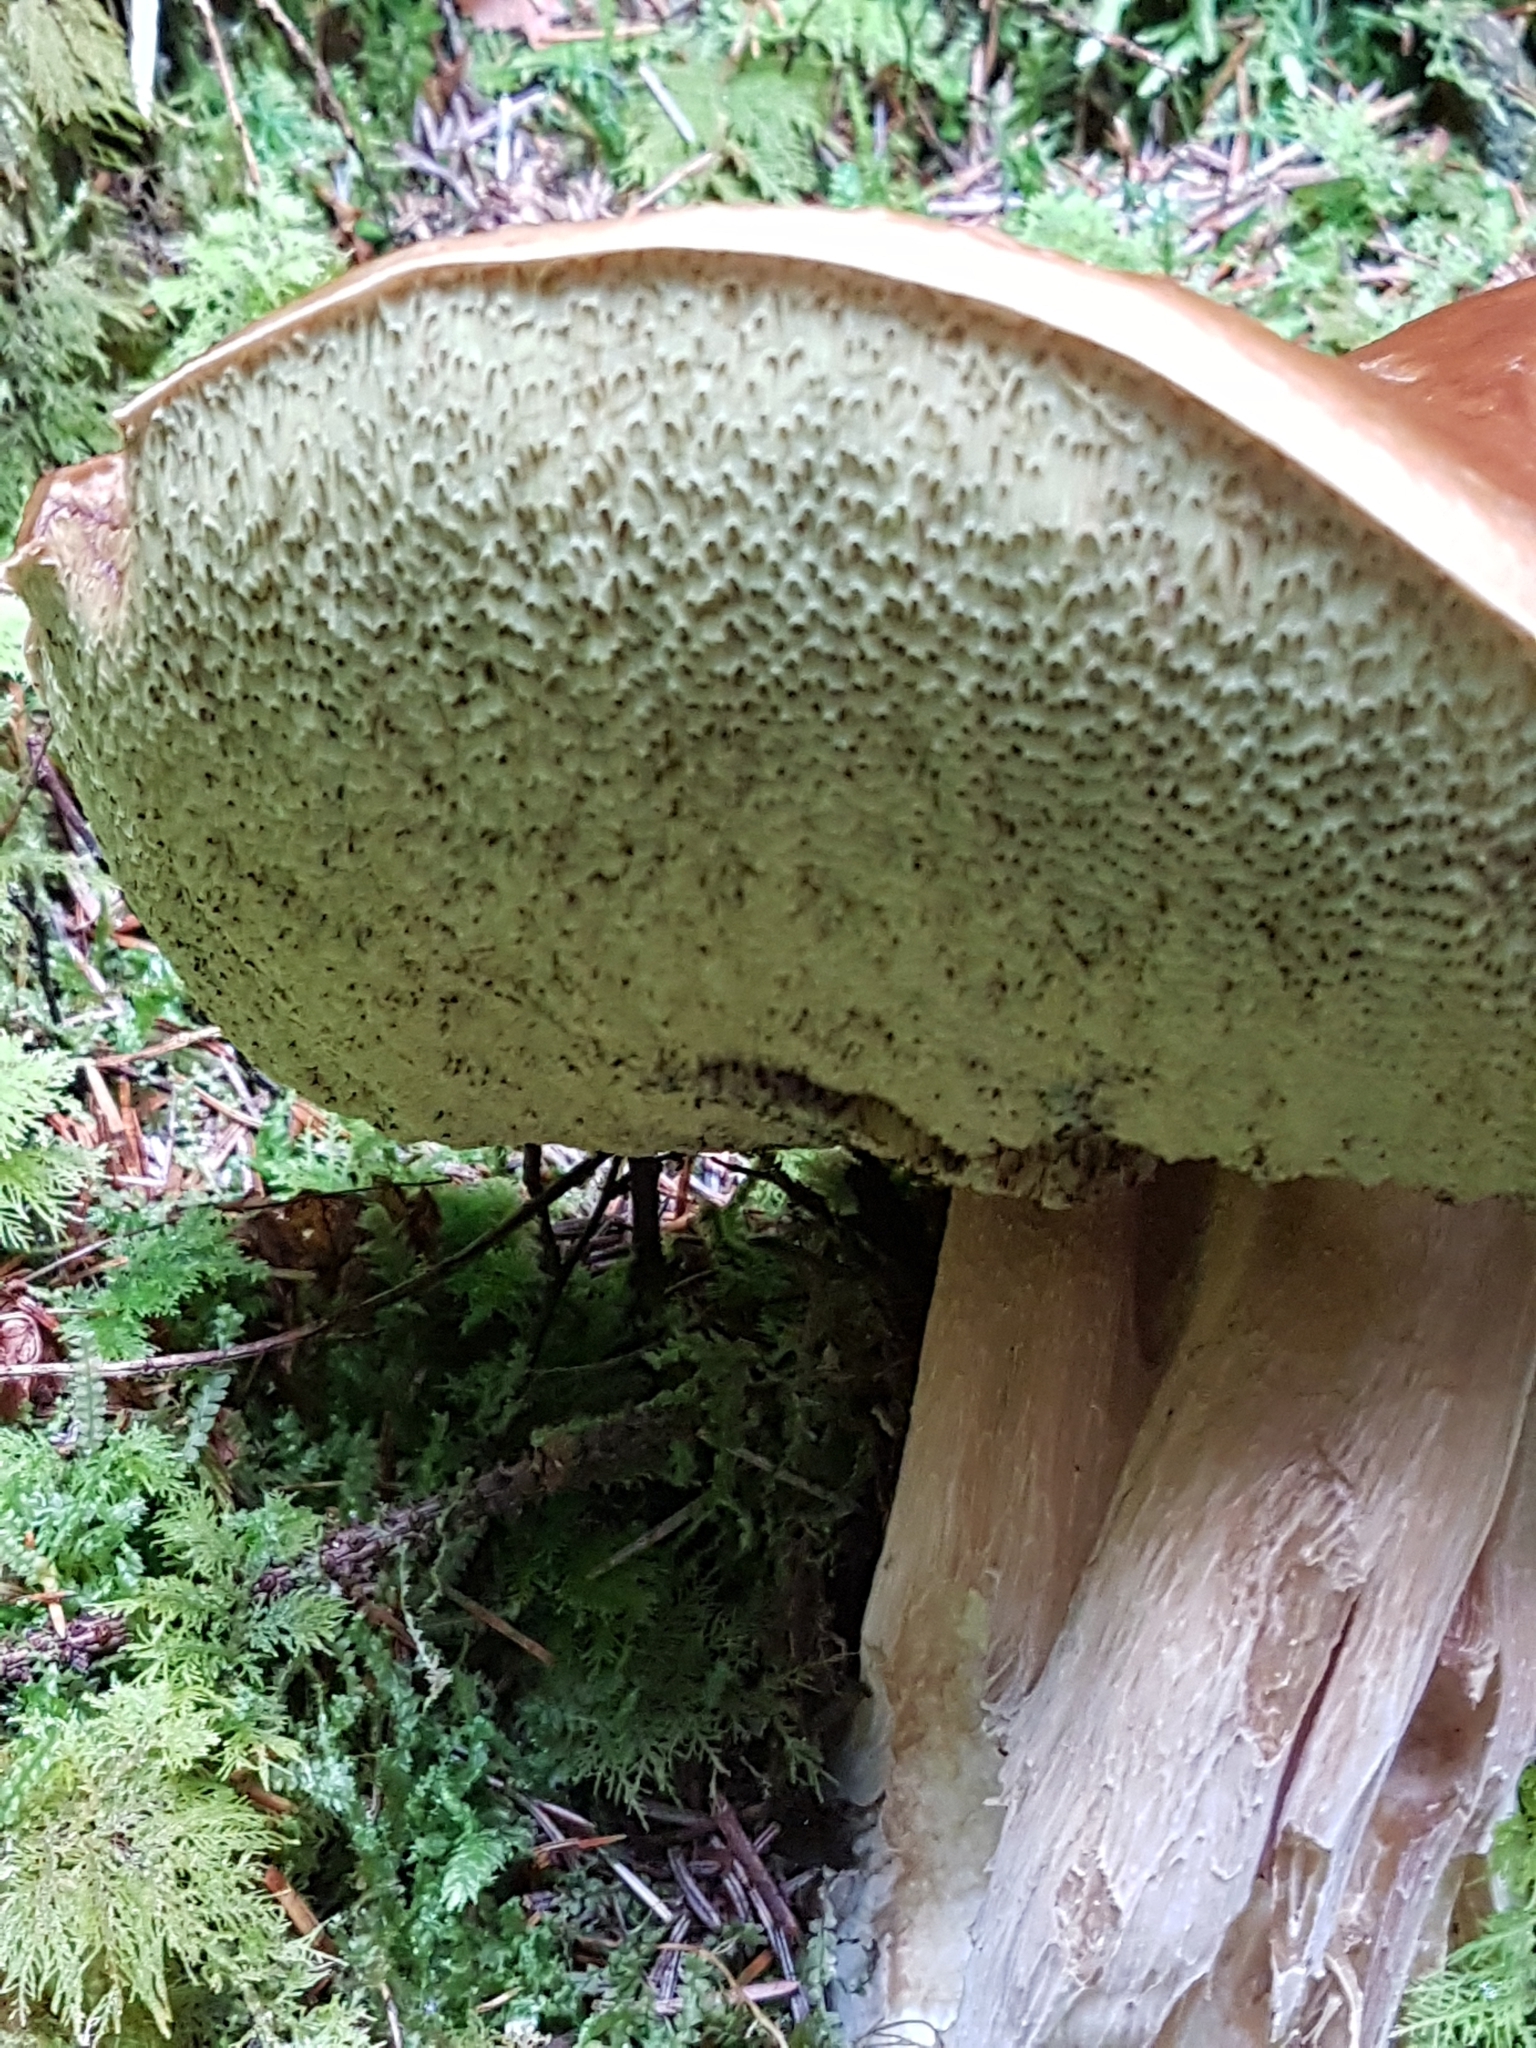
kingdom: Fungi
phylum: Basidiomycota
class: Agaricomycetes
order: Boletales
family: Boletaceae
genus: Boletus
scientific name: Boletus edulis
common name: Cep
